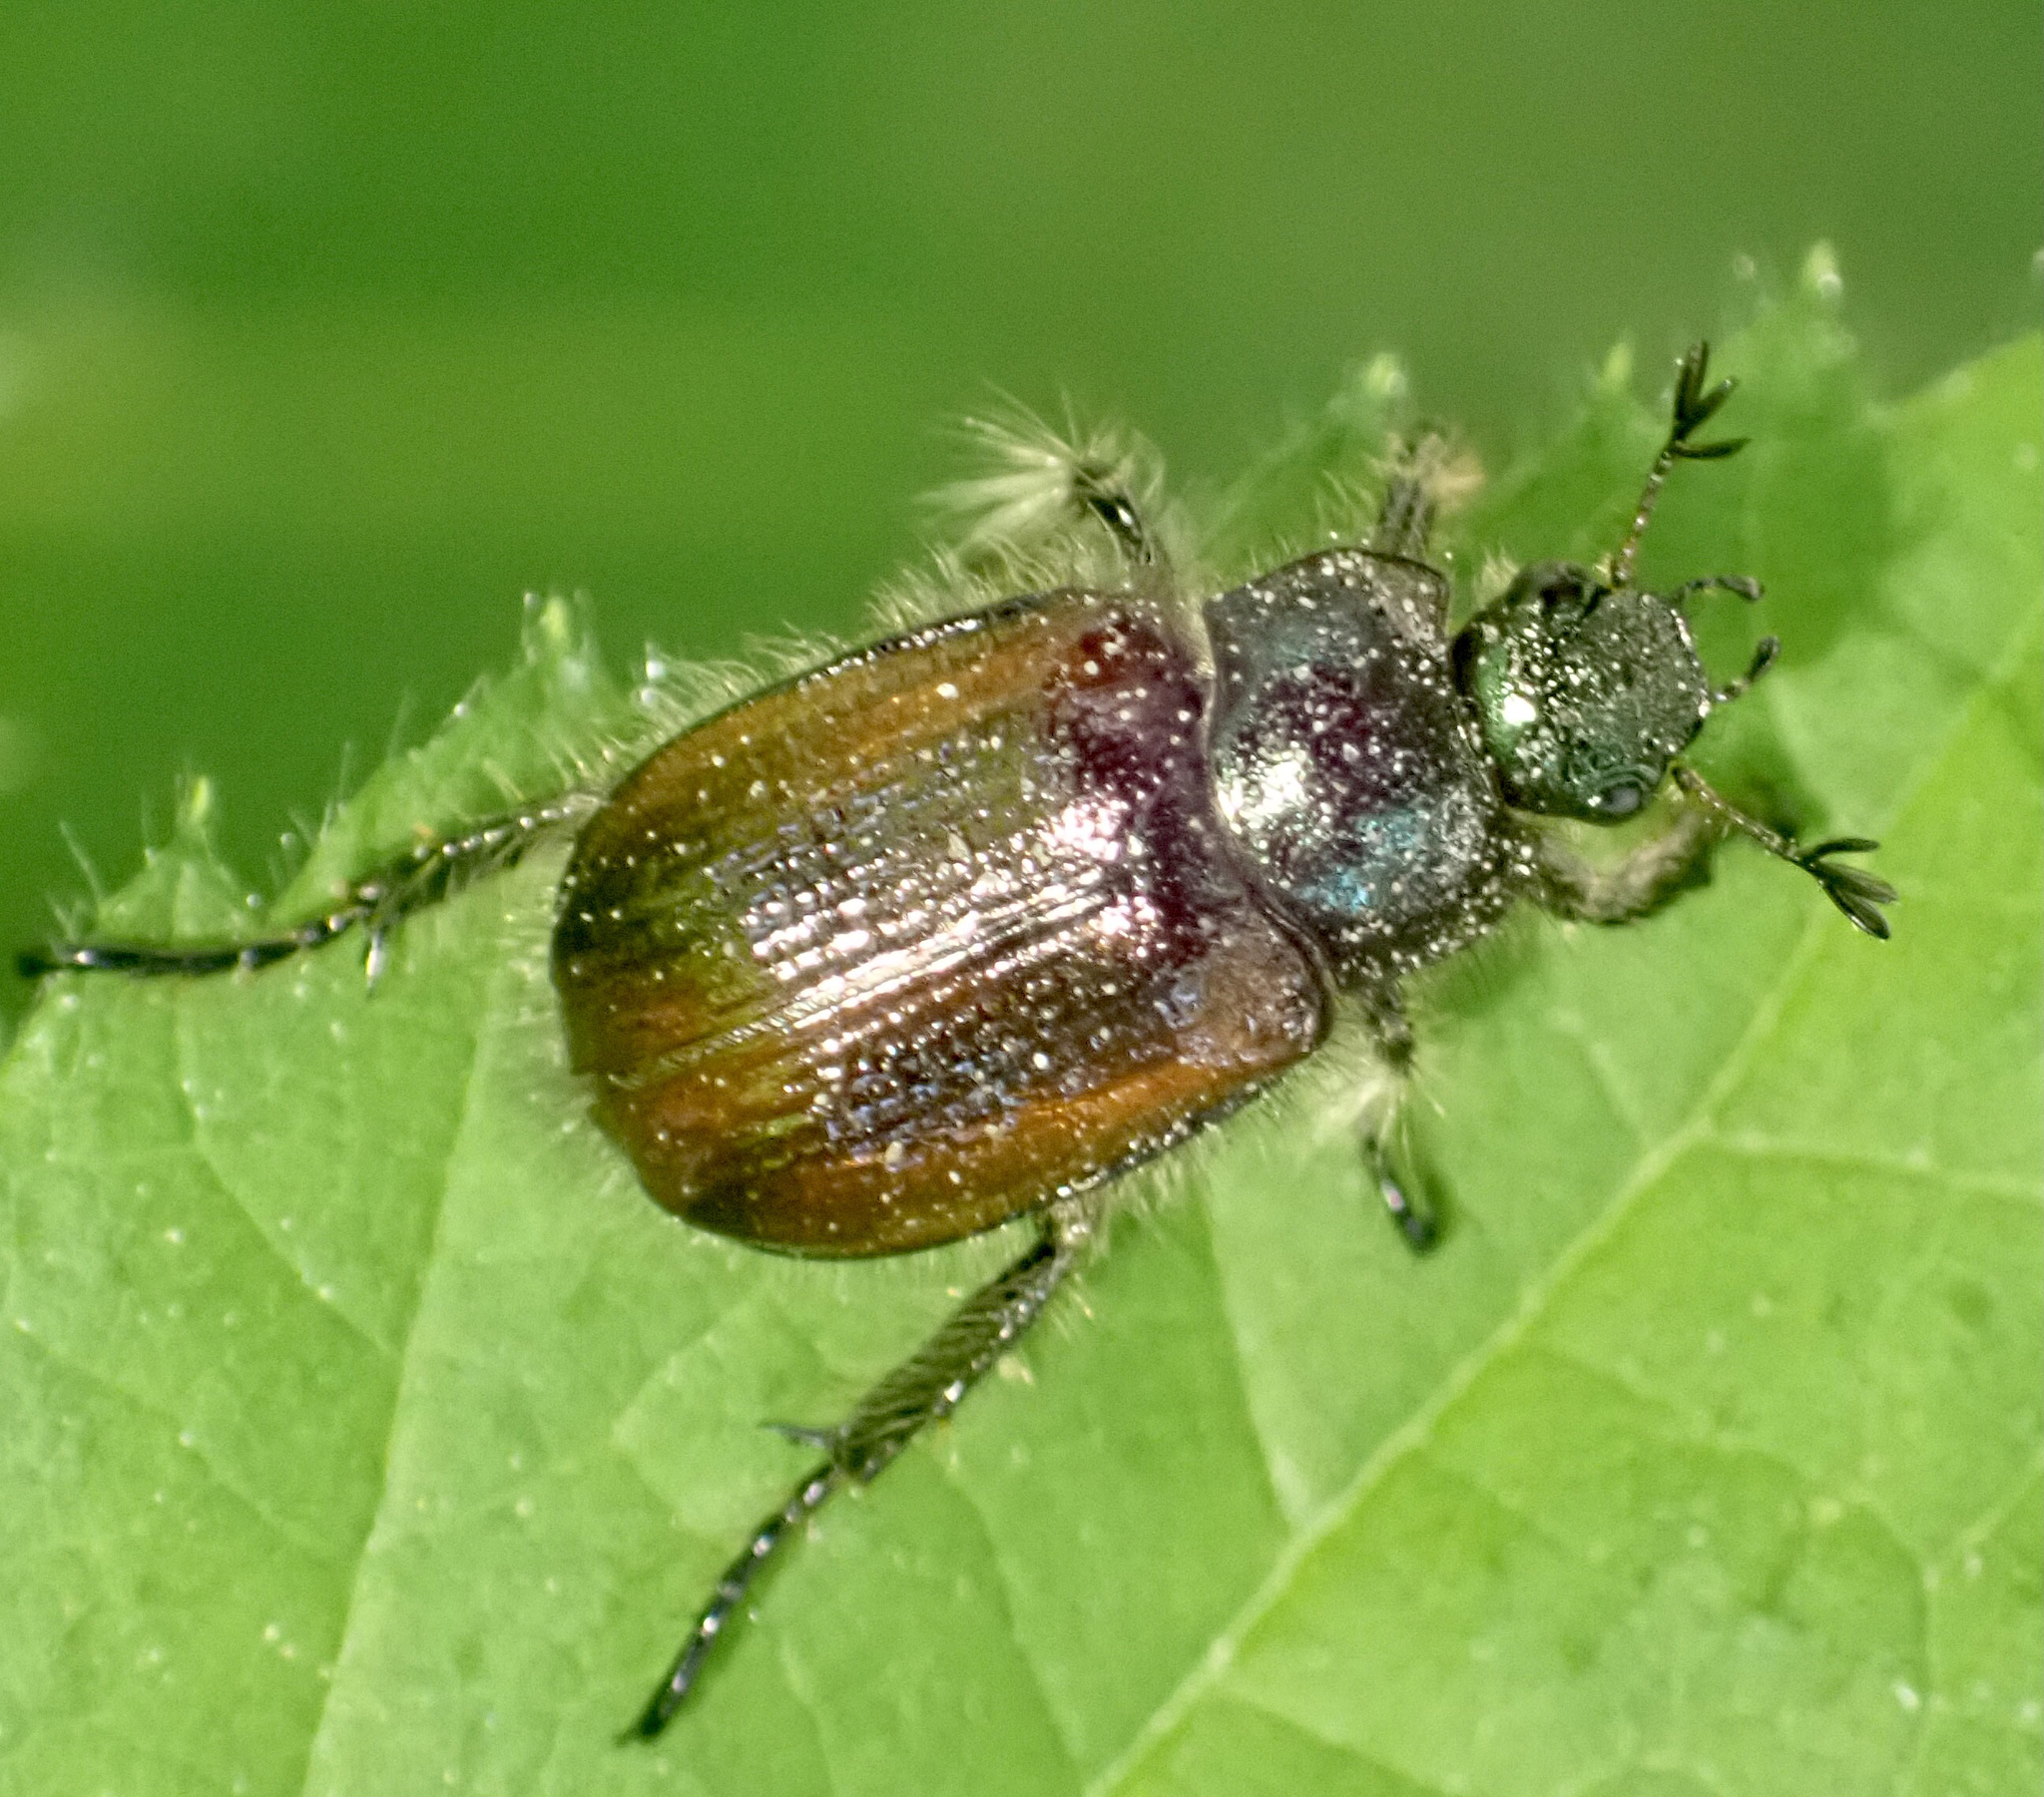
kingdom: Animalia
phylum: Arthropoda
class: Insecta
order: Coleoptera
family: Scarabaeidae
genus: Phyllopertha
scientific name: Phyllopertha horticola
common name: Garden chafer
